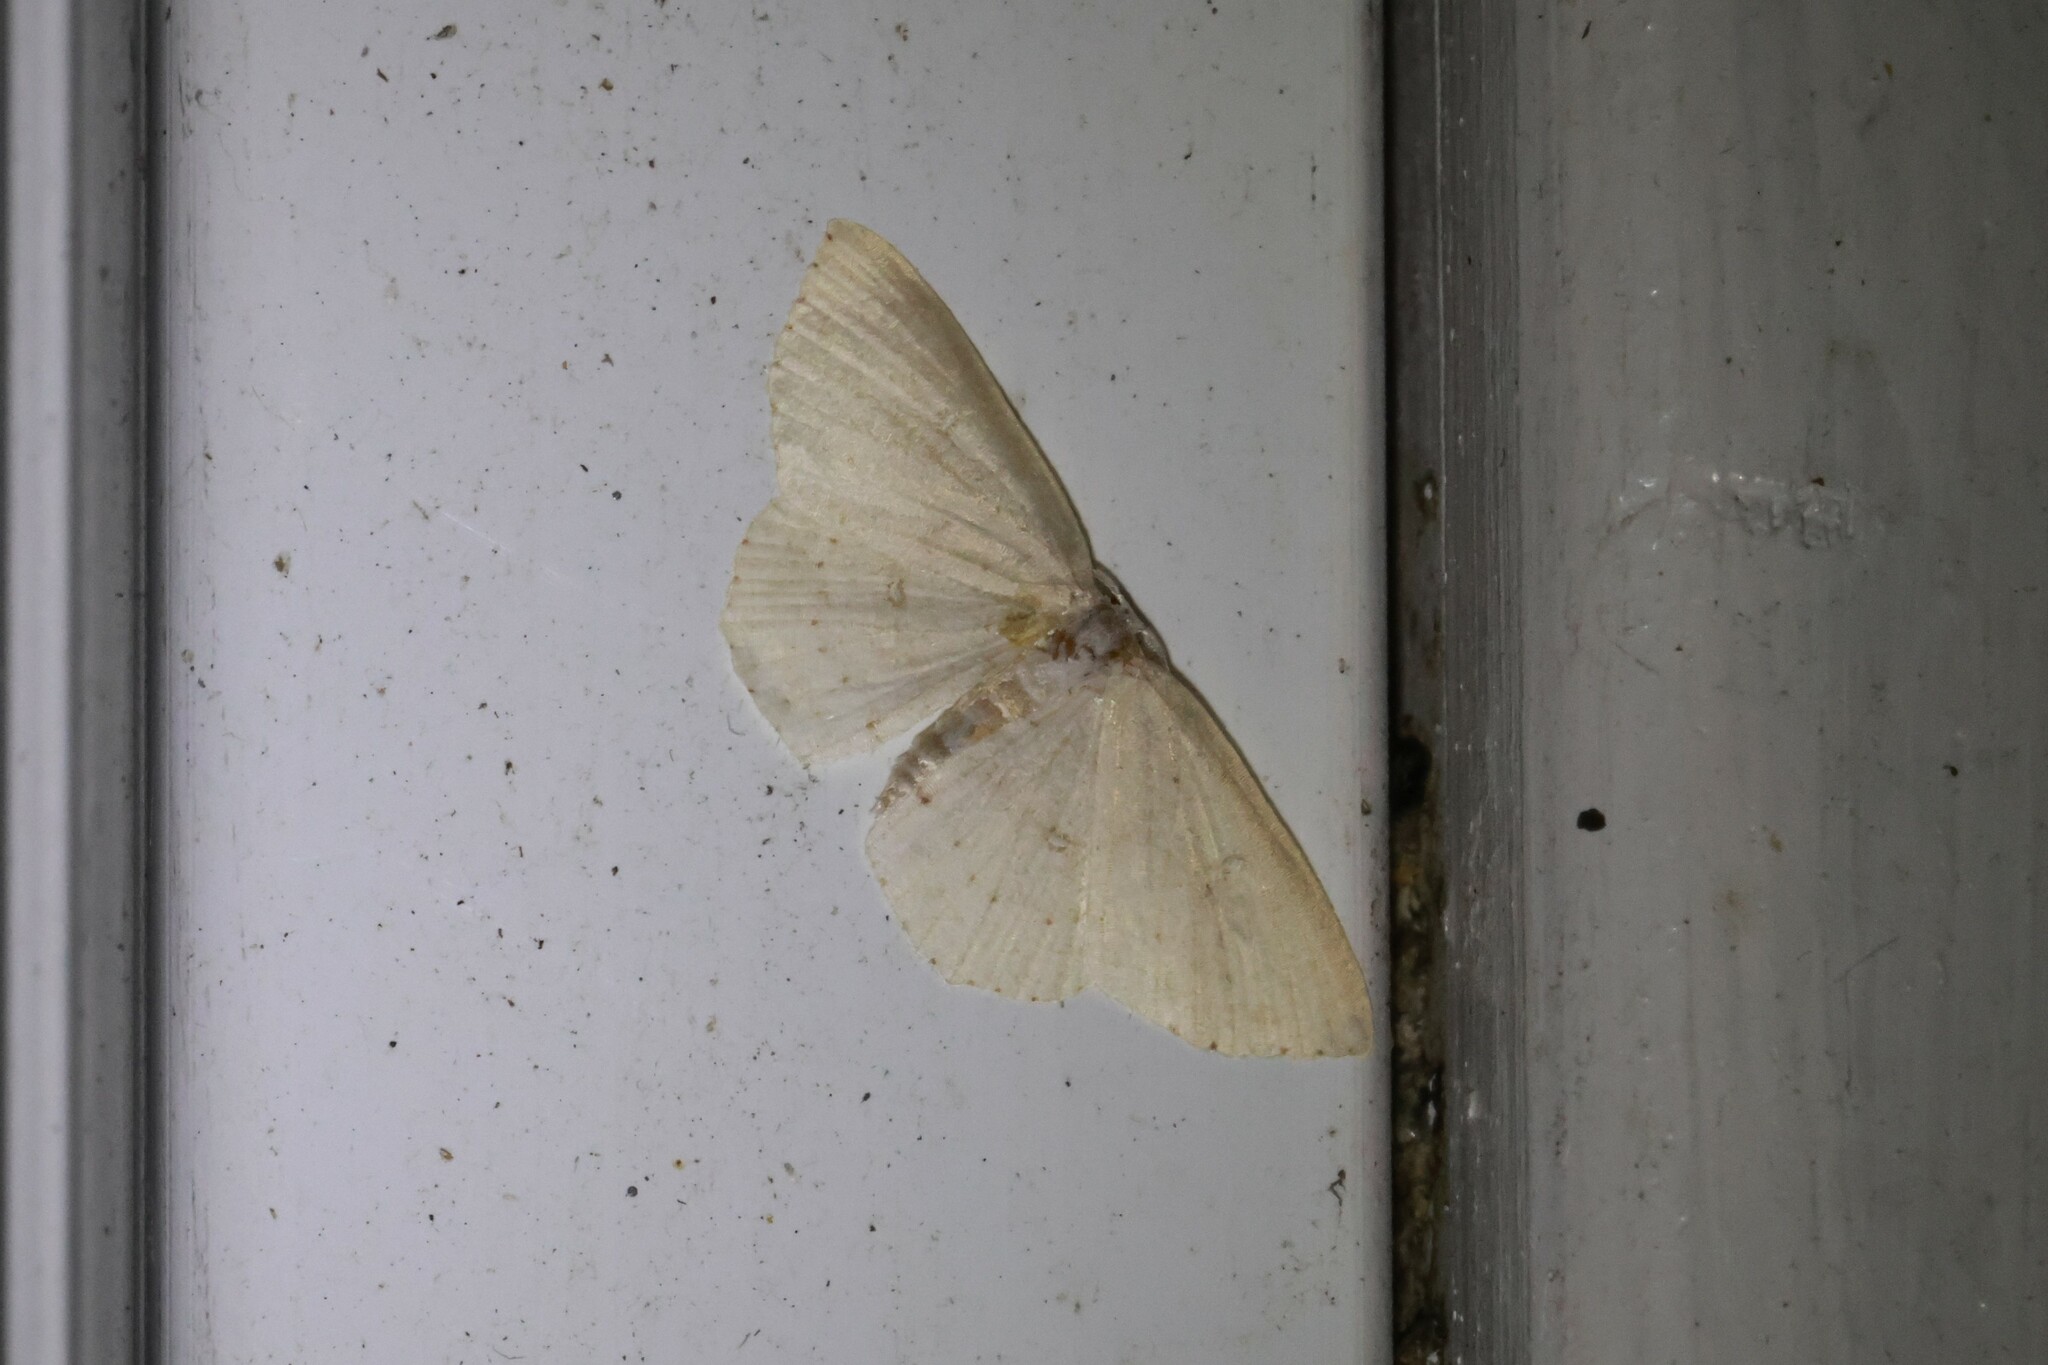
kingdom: Animalia
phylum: Arthropoda
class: Insecta
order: Lepidoptera
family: Geometridae
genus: Cyclophora
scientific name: Cyclophora pendulinaria
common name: Sweet fern geometer
